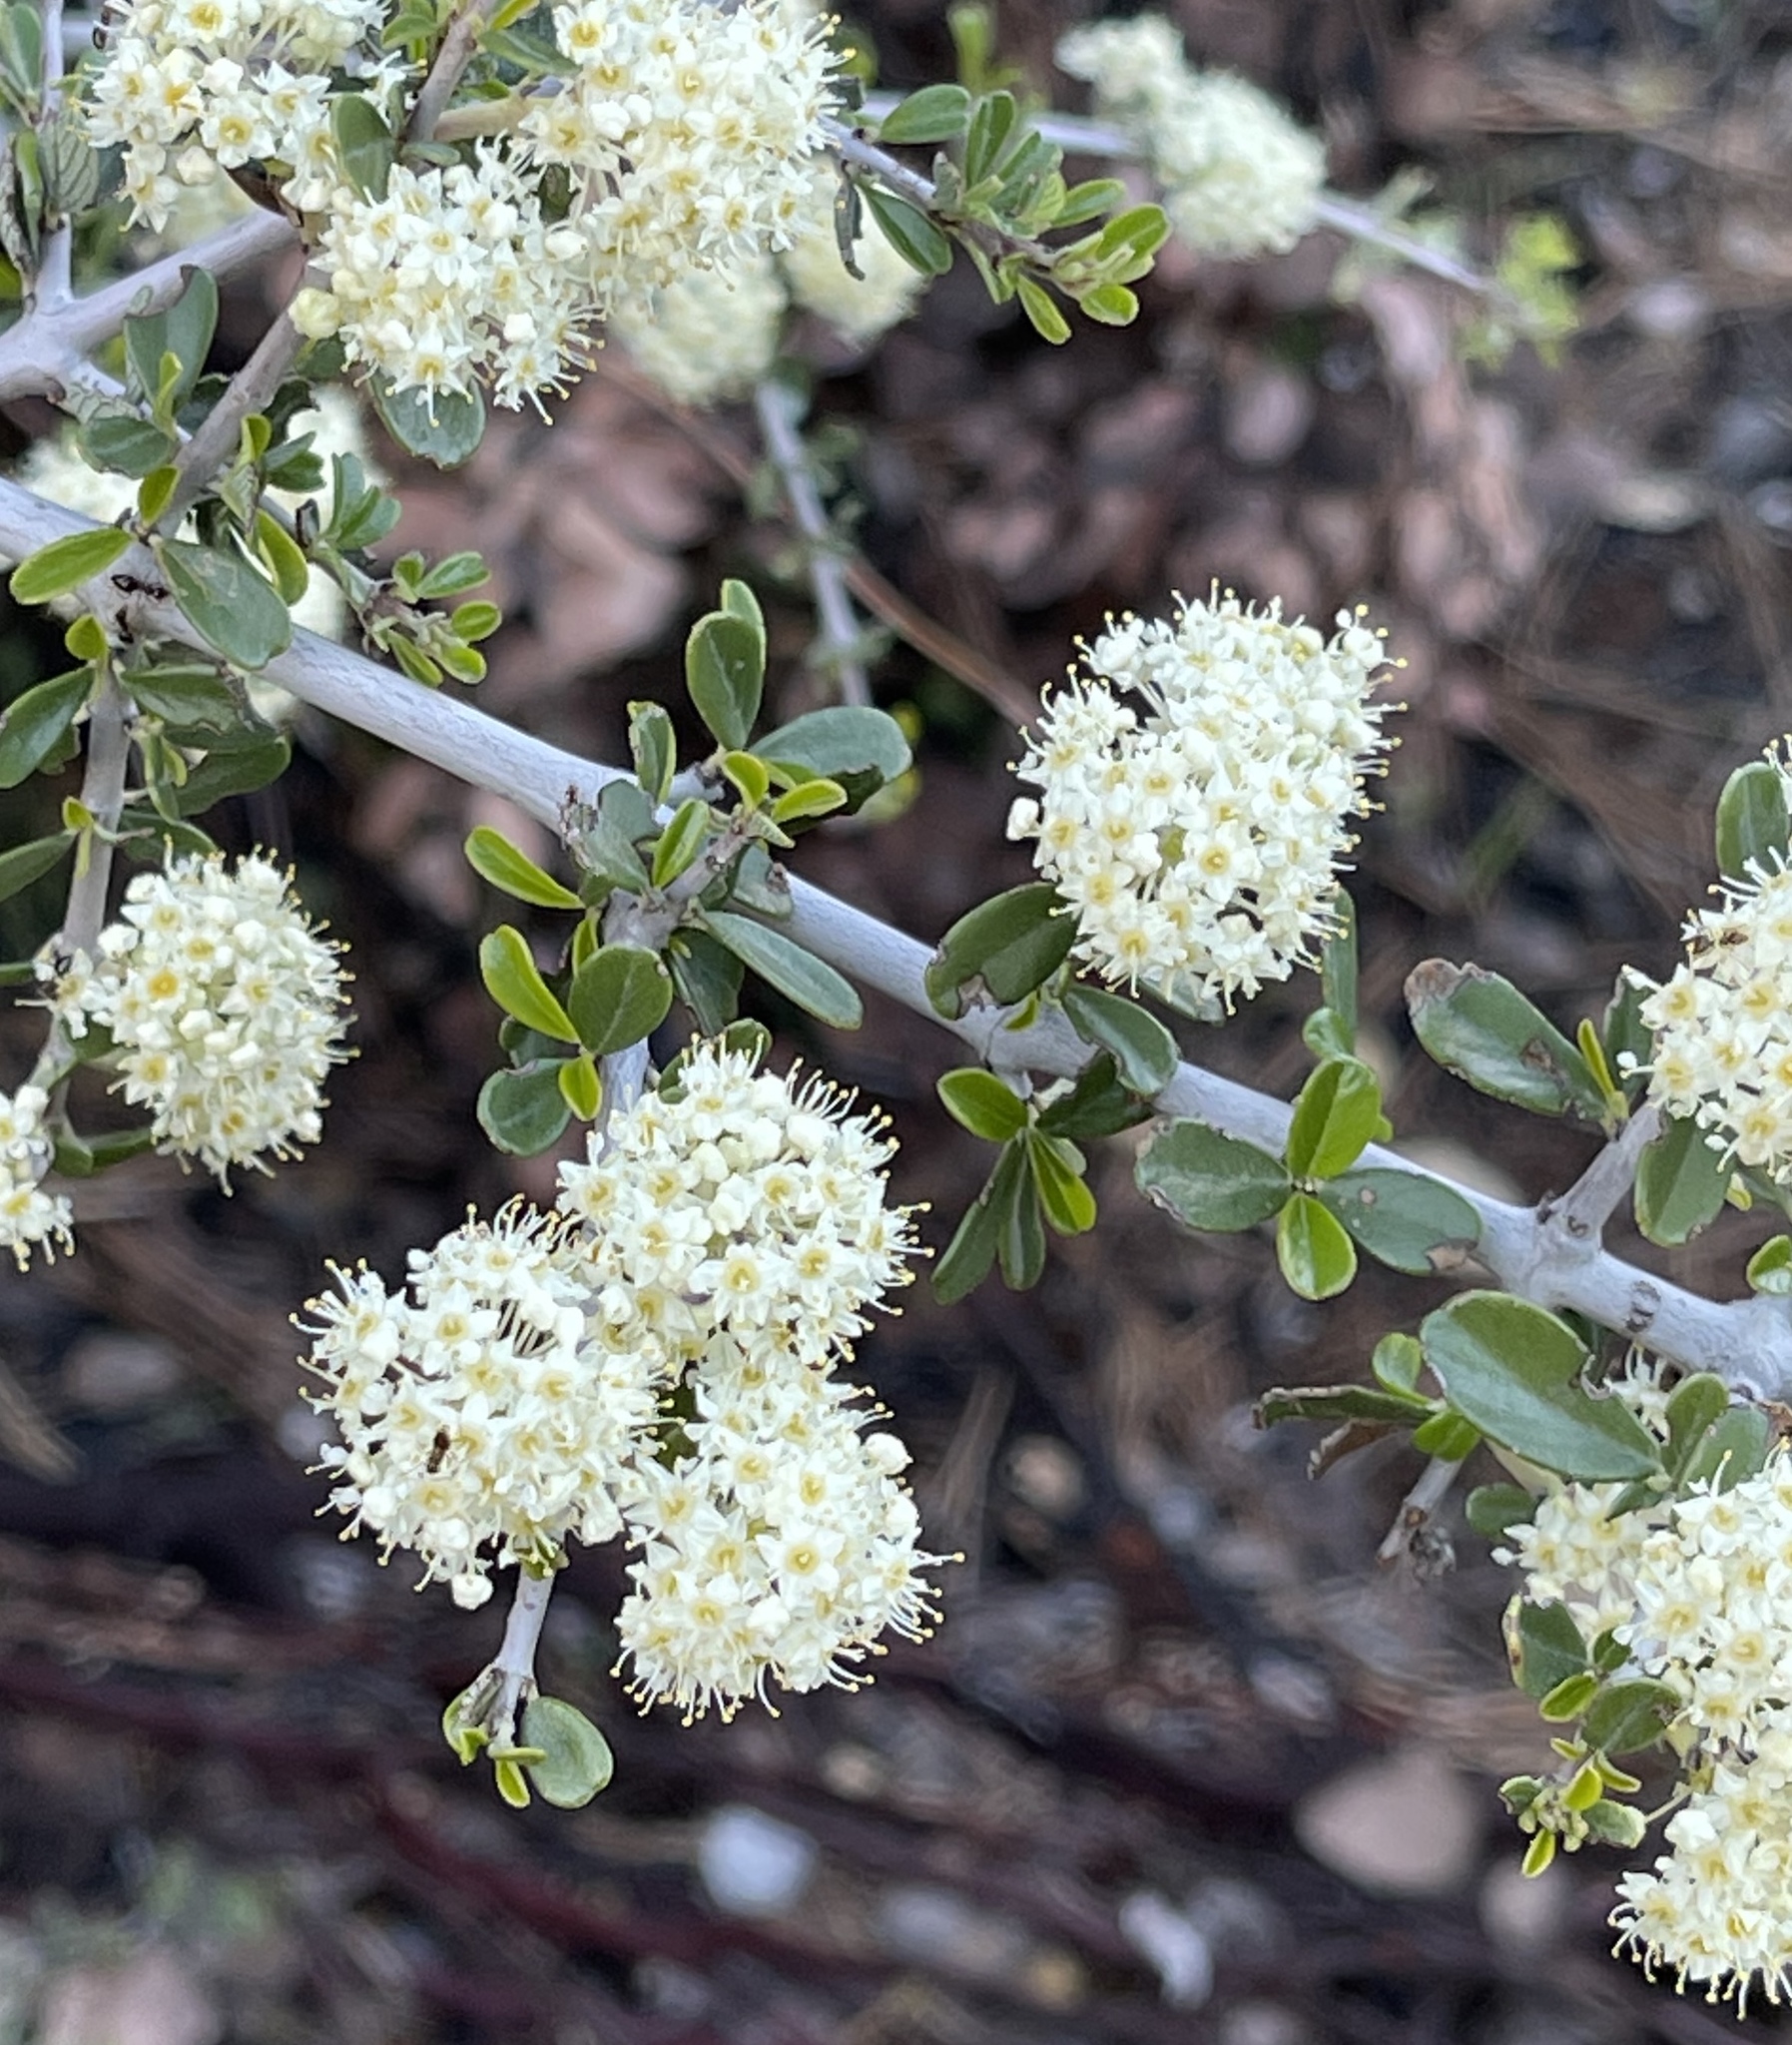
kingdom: Plantae
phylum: Tracheophyta
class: Magnoliopsida
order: Rosales
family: Rhamnaceae
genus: Ceanothus
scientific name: Ceanothus cuneatus
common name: Cuneate ceanothus
